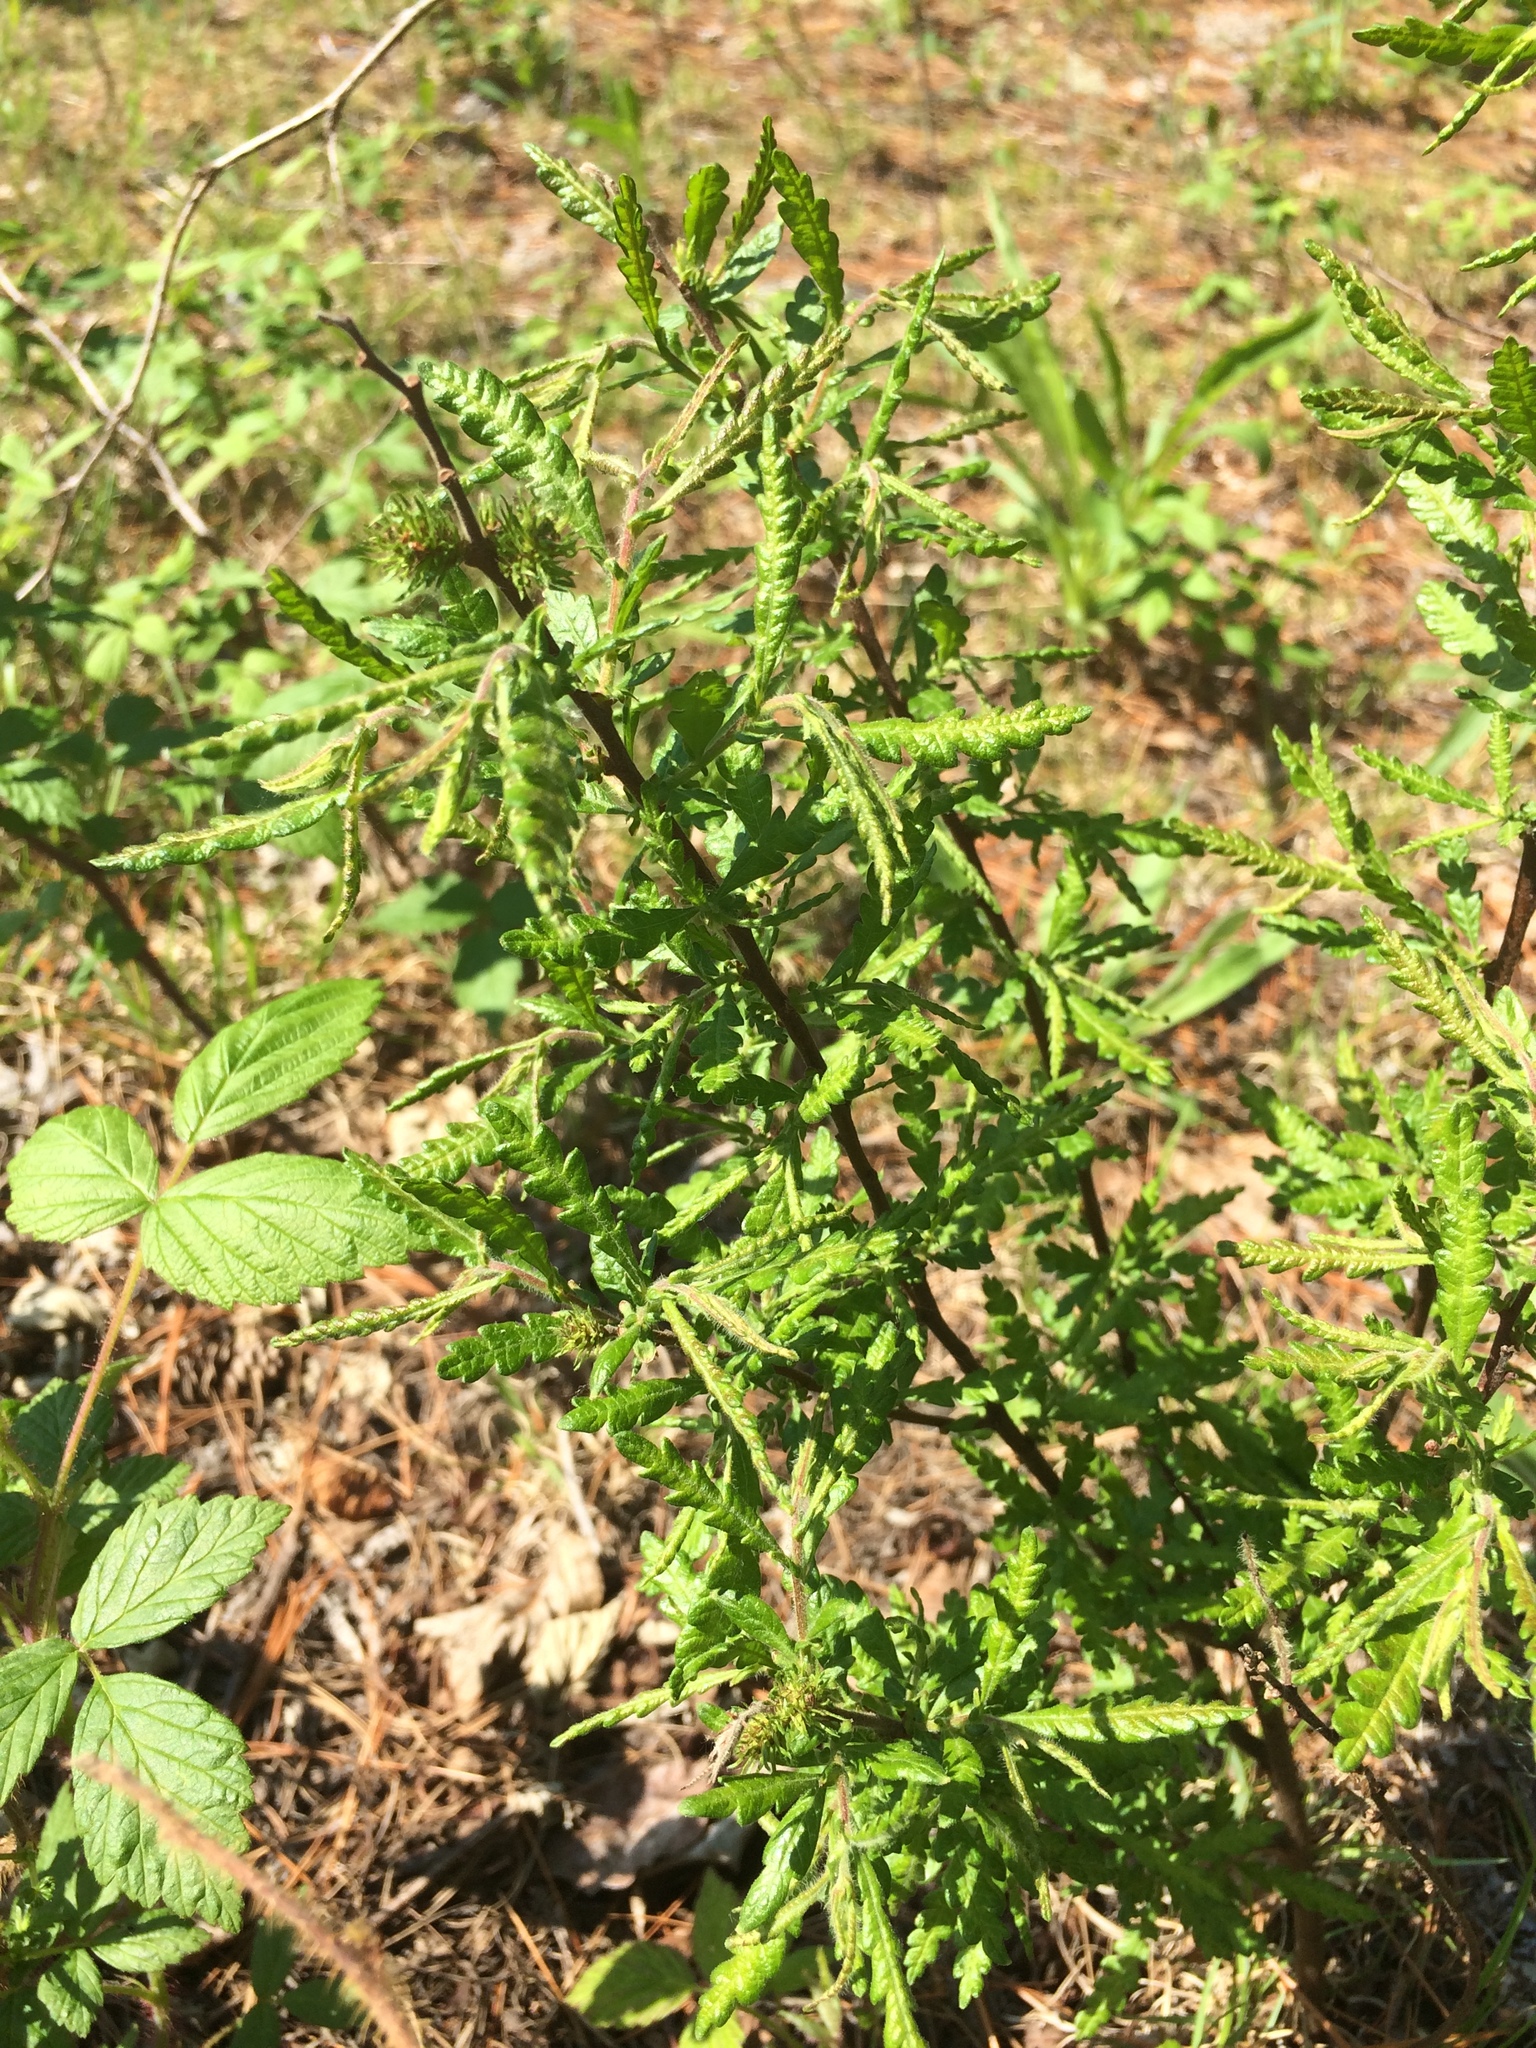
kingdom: Plantae
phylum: Tracheophyta
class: Magnoliopsida
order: Fagales
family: Myricaceae
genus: Comptonia
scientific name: Comptonia peregrina
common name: Sweet-fern
